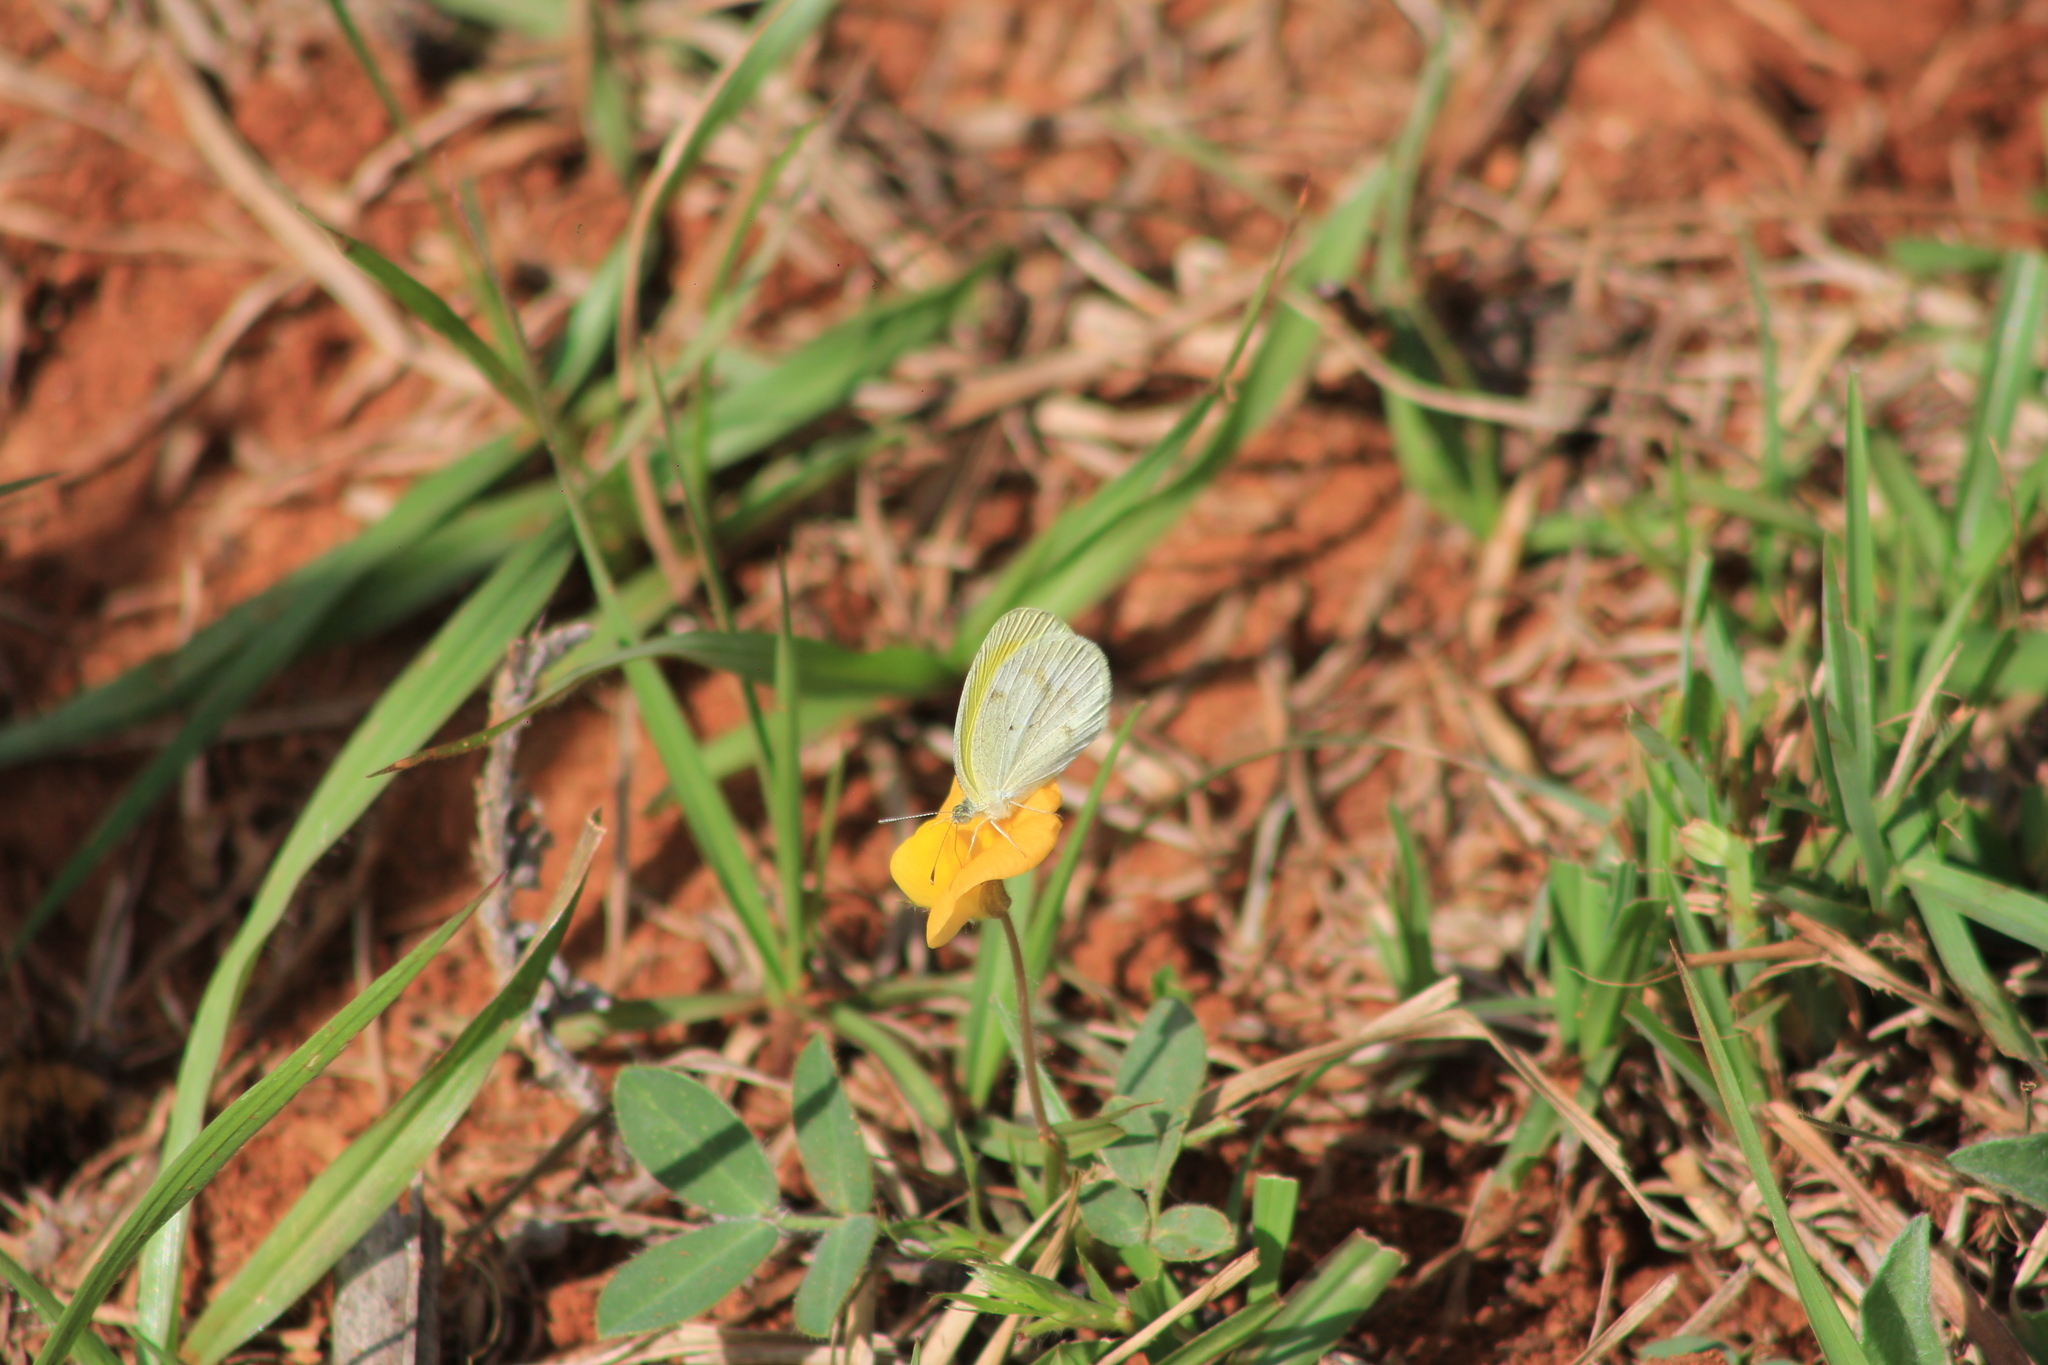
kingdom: Animalia
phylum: Arthropoda
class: Insecta
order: Lepidoptera
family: Pieridae
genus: Eurema
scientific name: Eurema elathea
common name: Banded yellow
